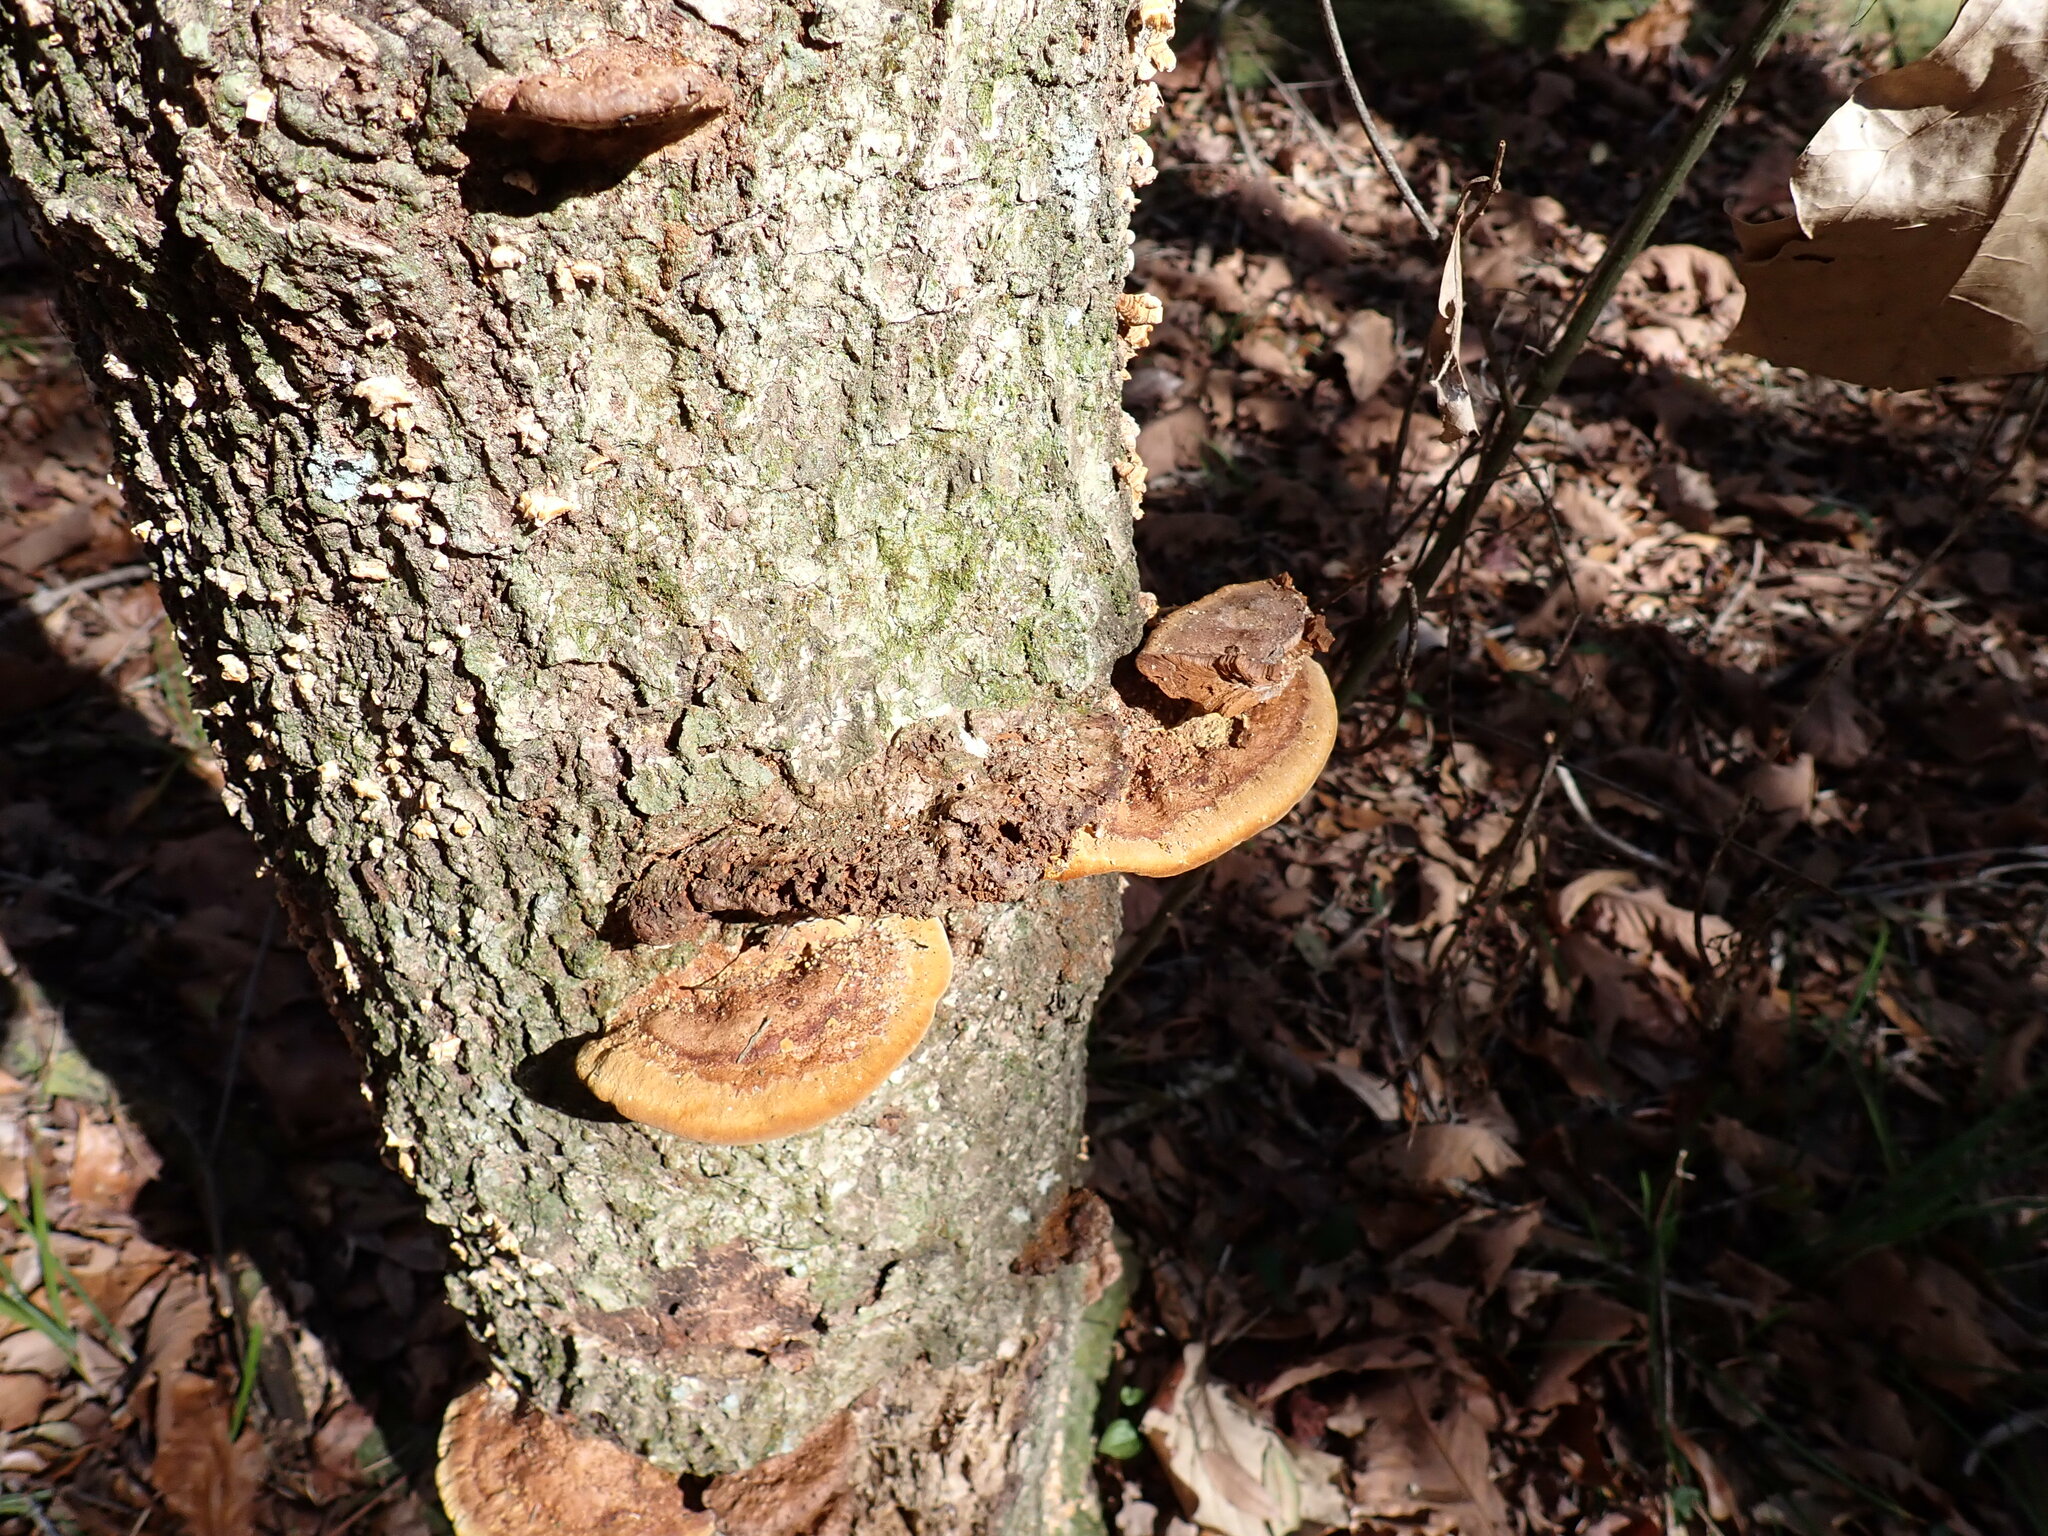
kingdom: Fungi
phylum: Basidiomycota
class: Agaricomycetes
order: Hymenochaetales
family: Hymenochaetaceae
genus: Phellinus
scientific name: Phellinus gilvus
